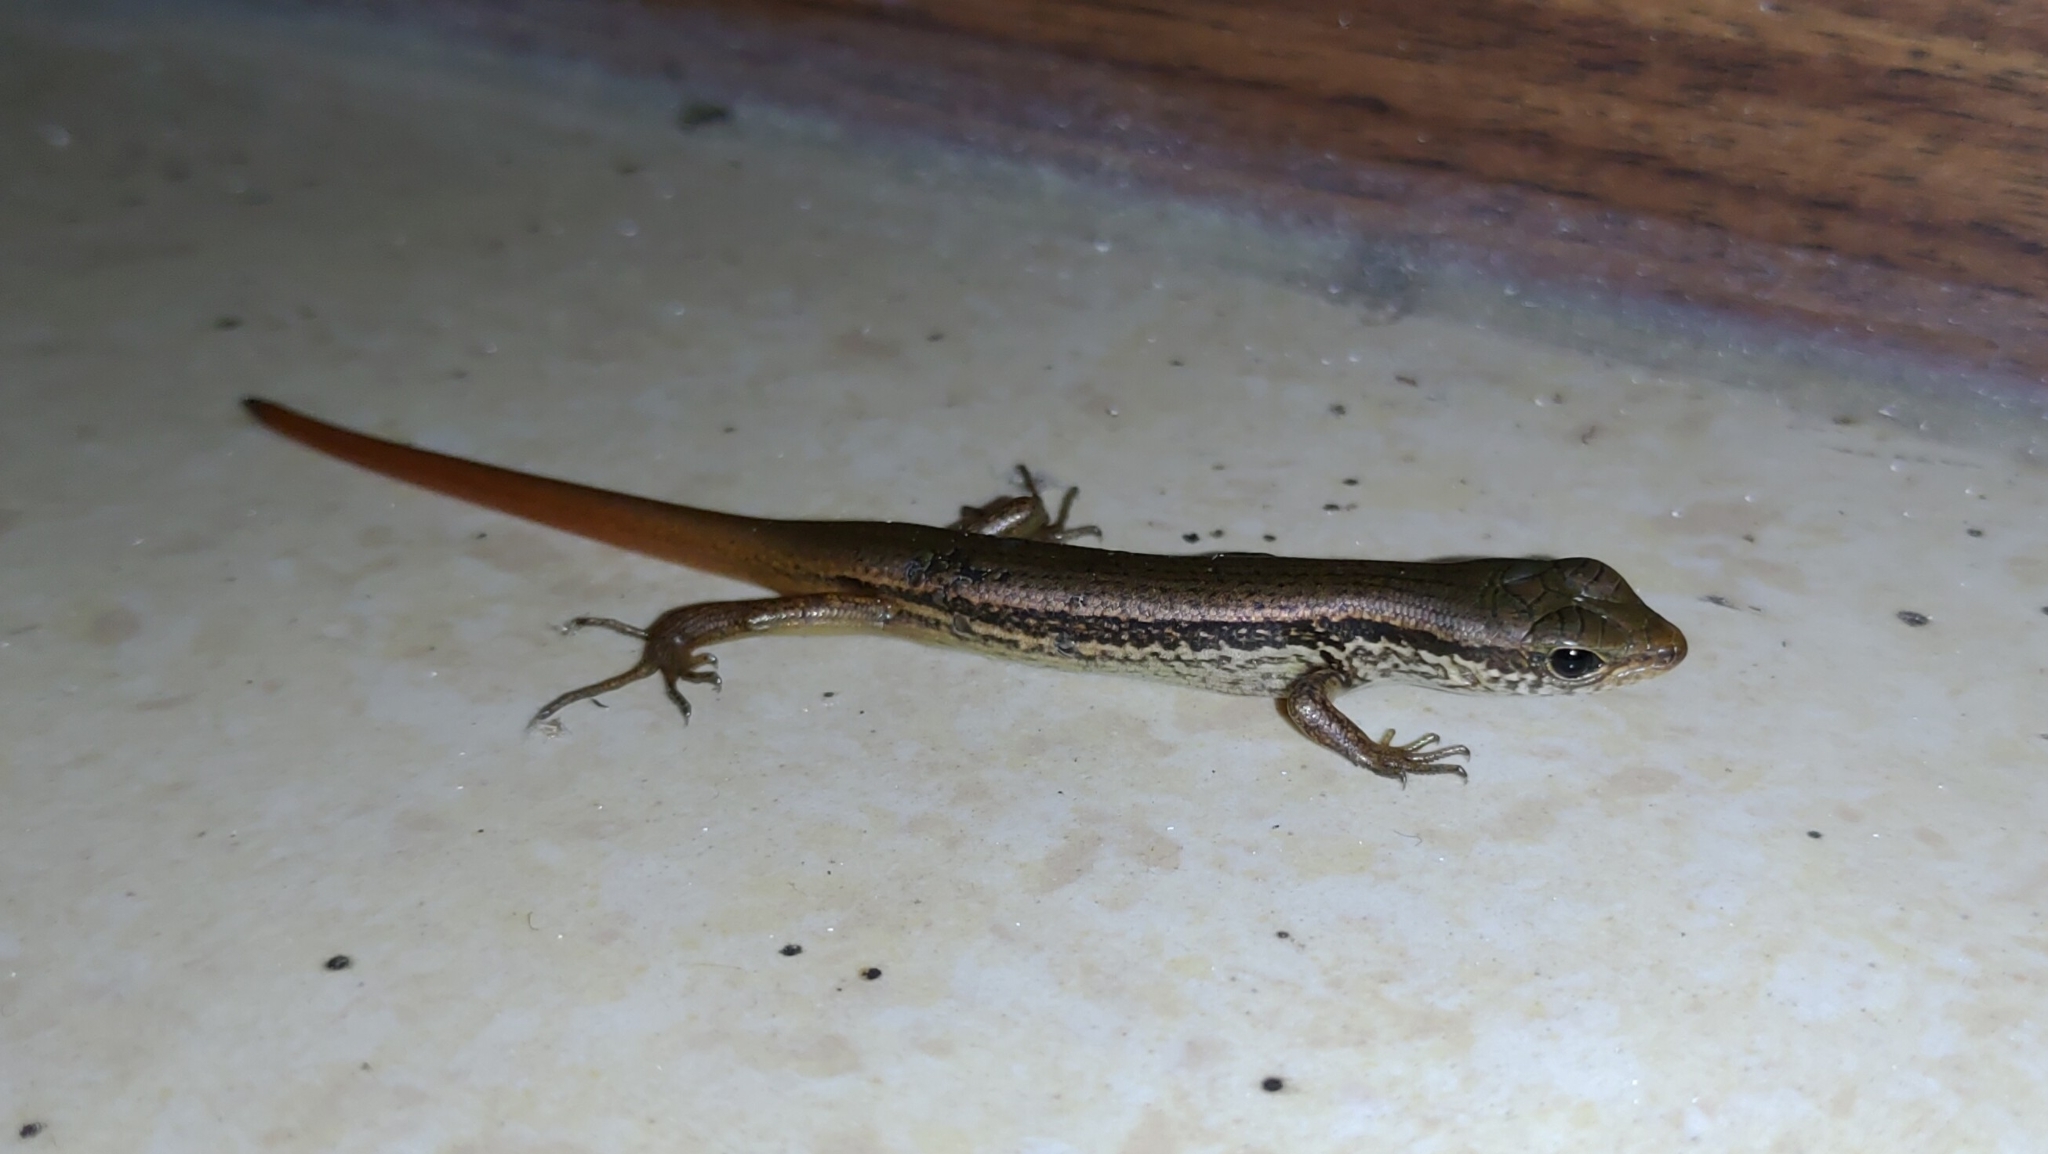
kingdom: Animalia
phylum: Chordata
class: Squamata
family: Scincidae
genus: Sphenomorphus
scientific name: Sphenomorphus indicus
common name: Himalayan forest skink
